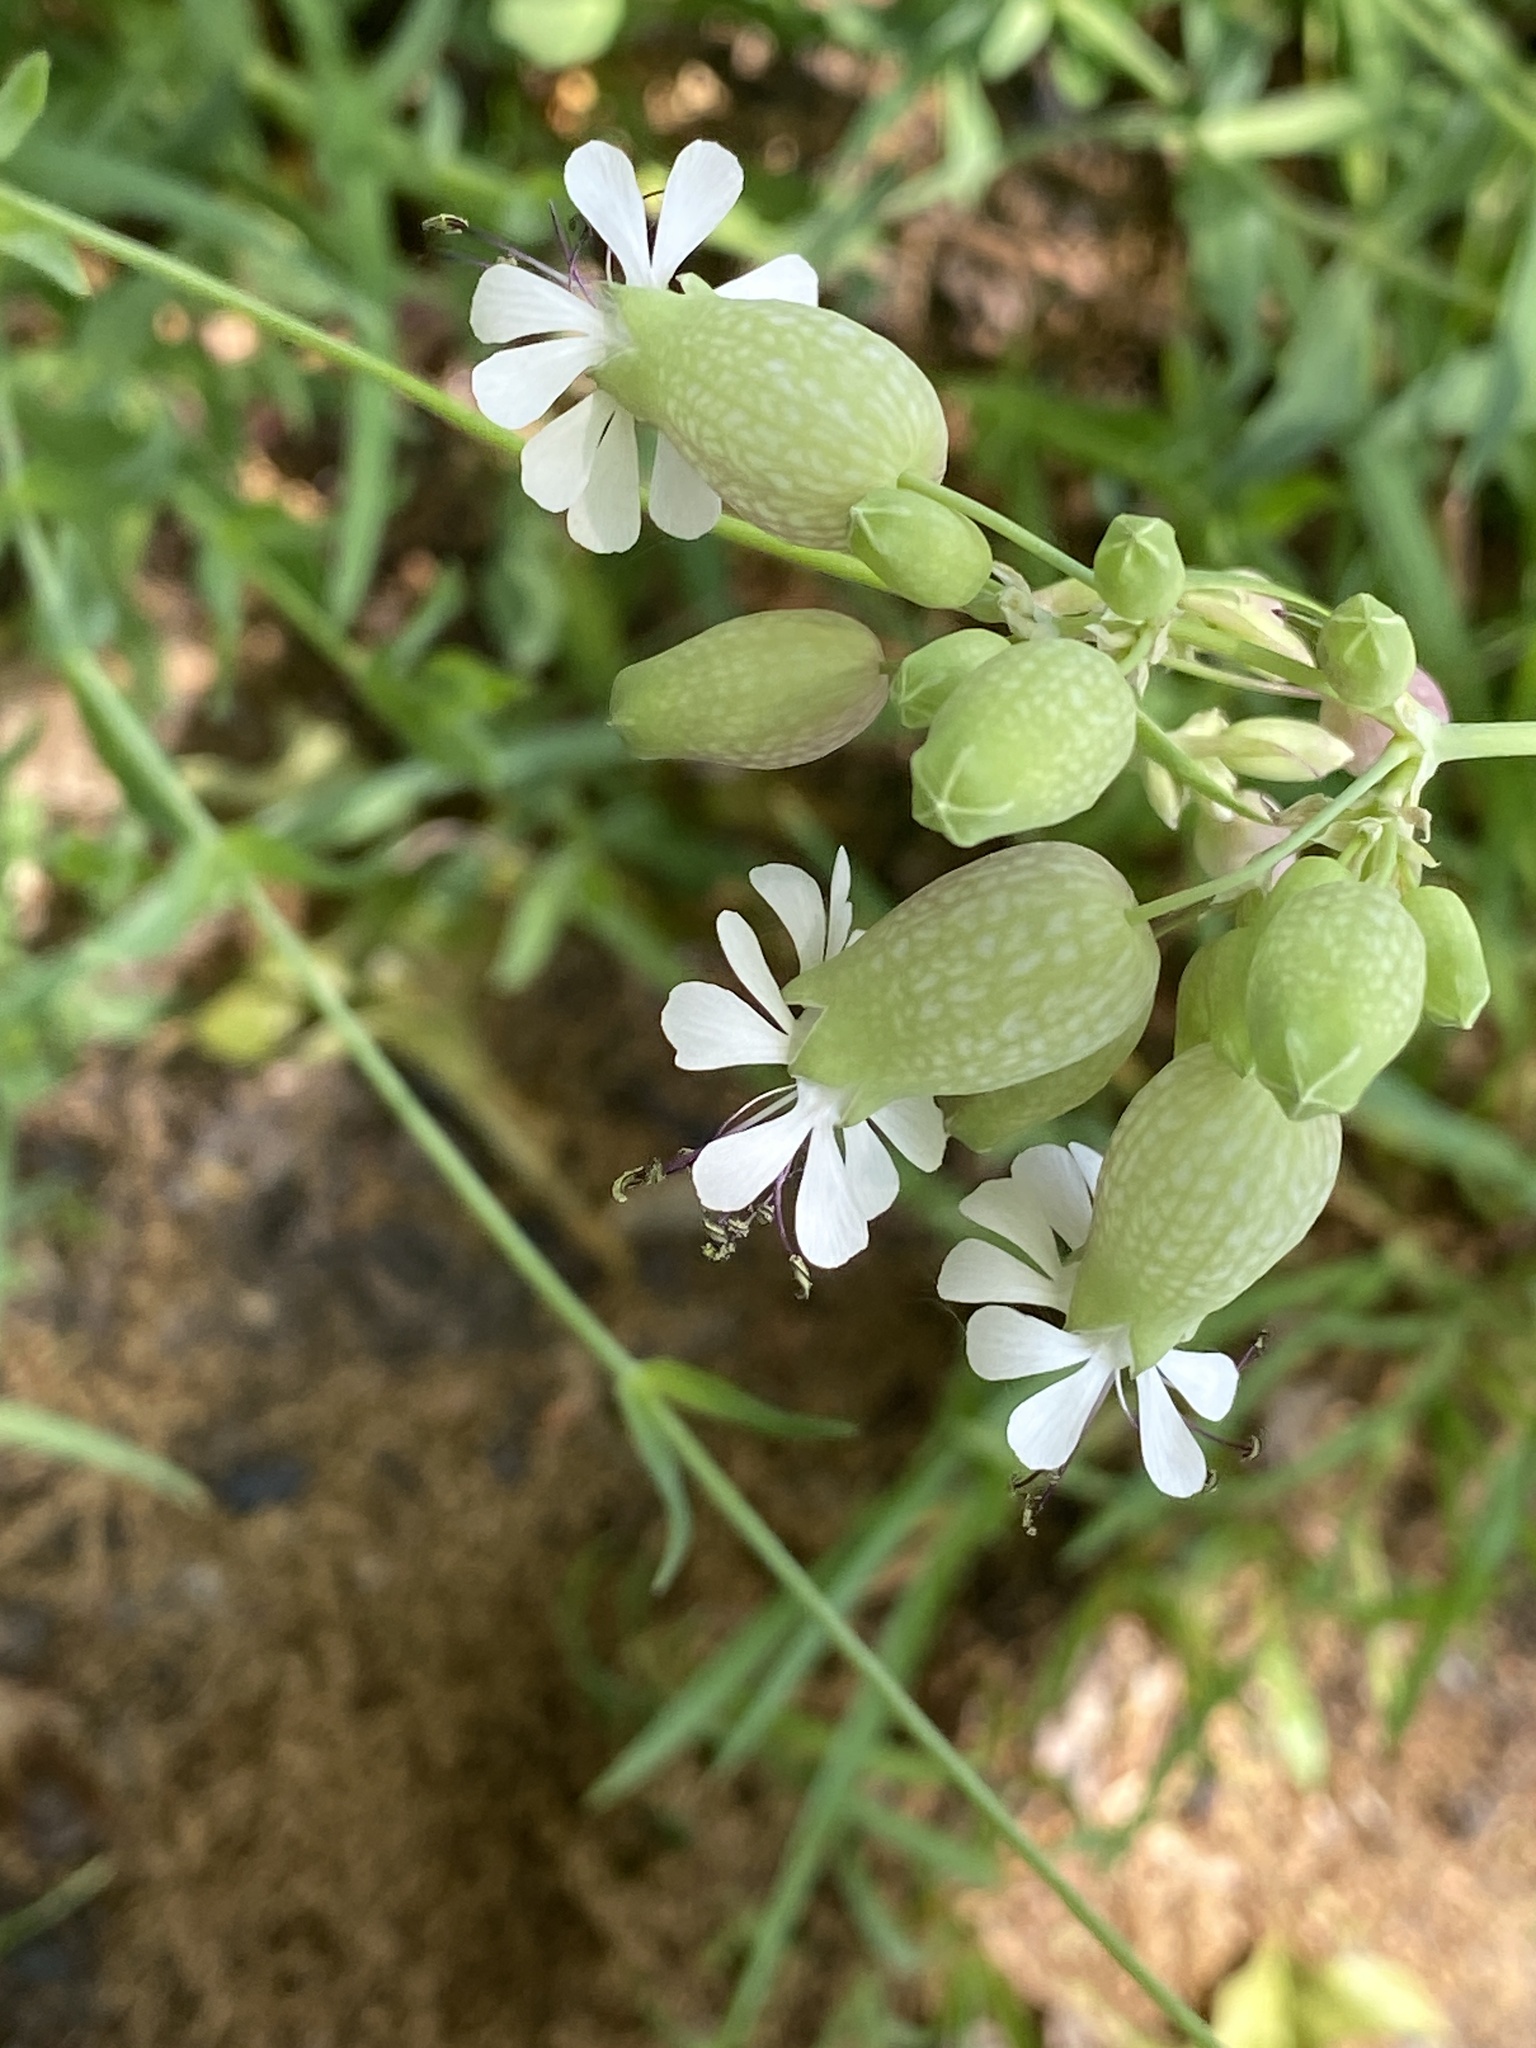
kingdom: Plantae
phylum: Tracheophyta
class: Magnoliopsida
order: Caryophyllales
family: Caryophyllaceae
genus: Silene
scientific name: Silene vulgaris
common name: Bladder campion
